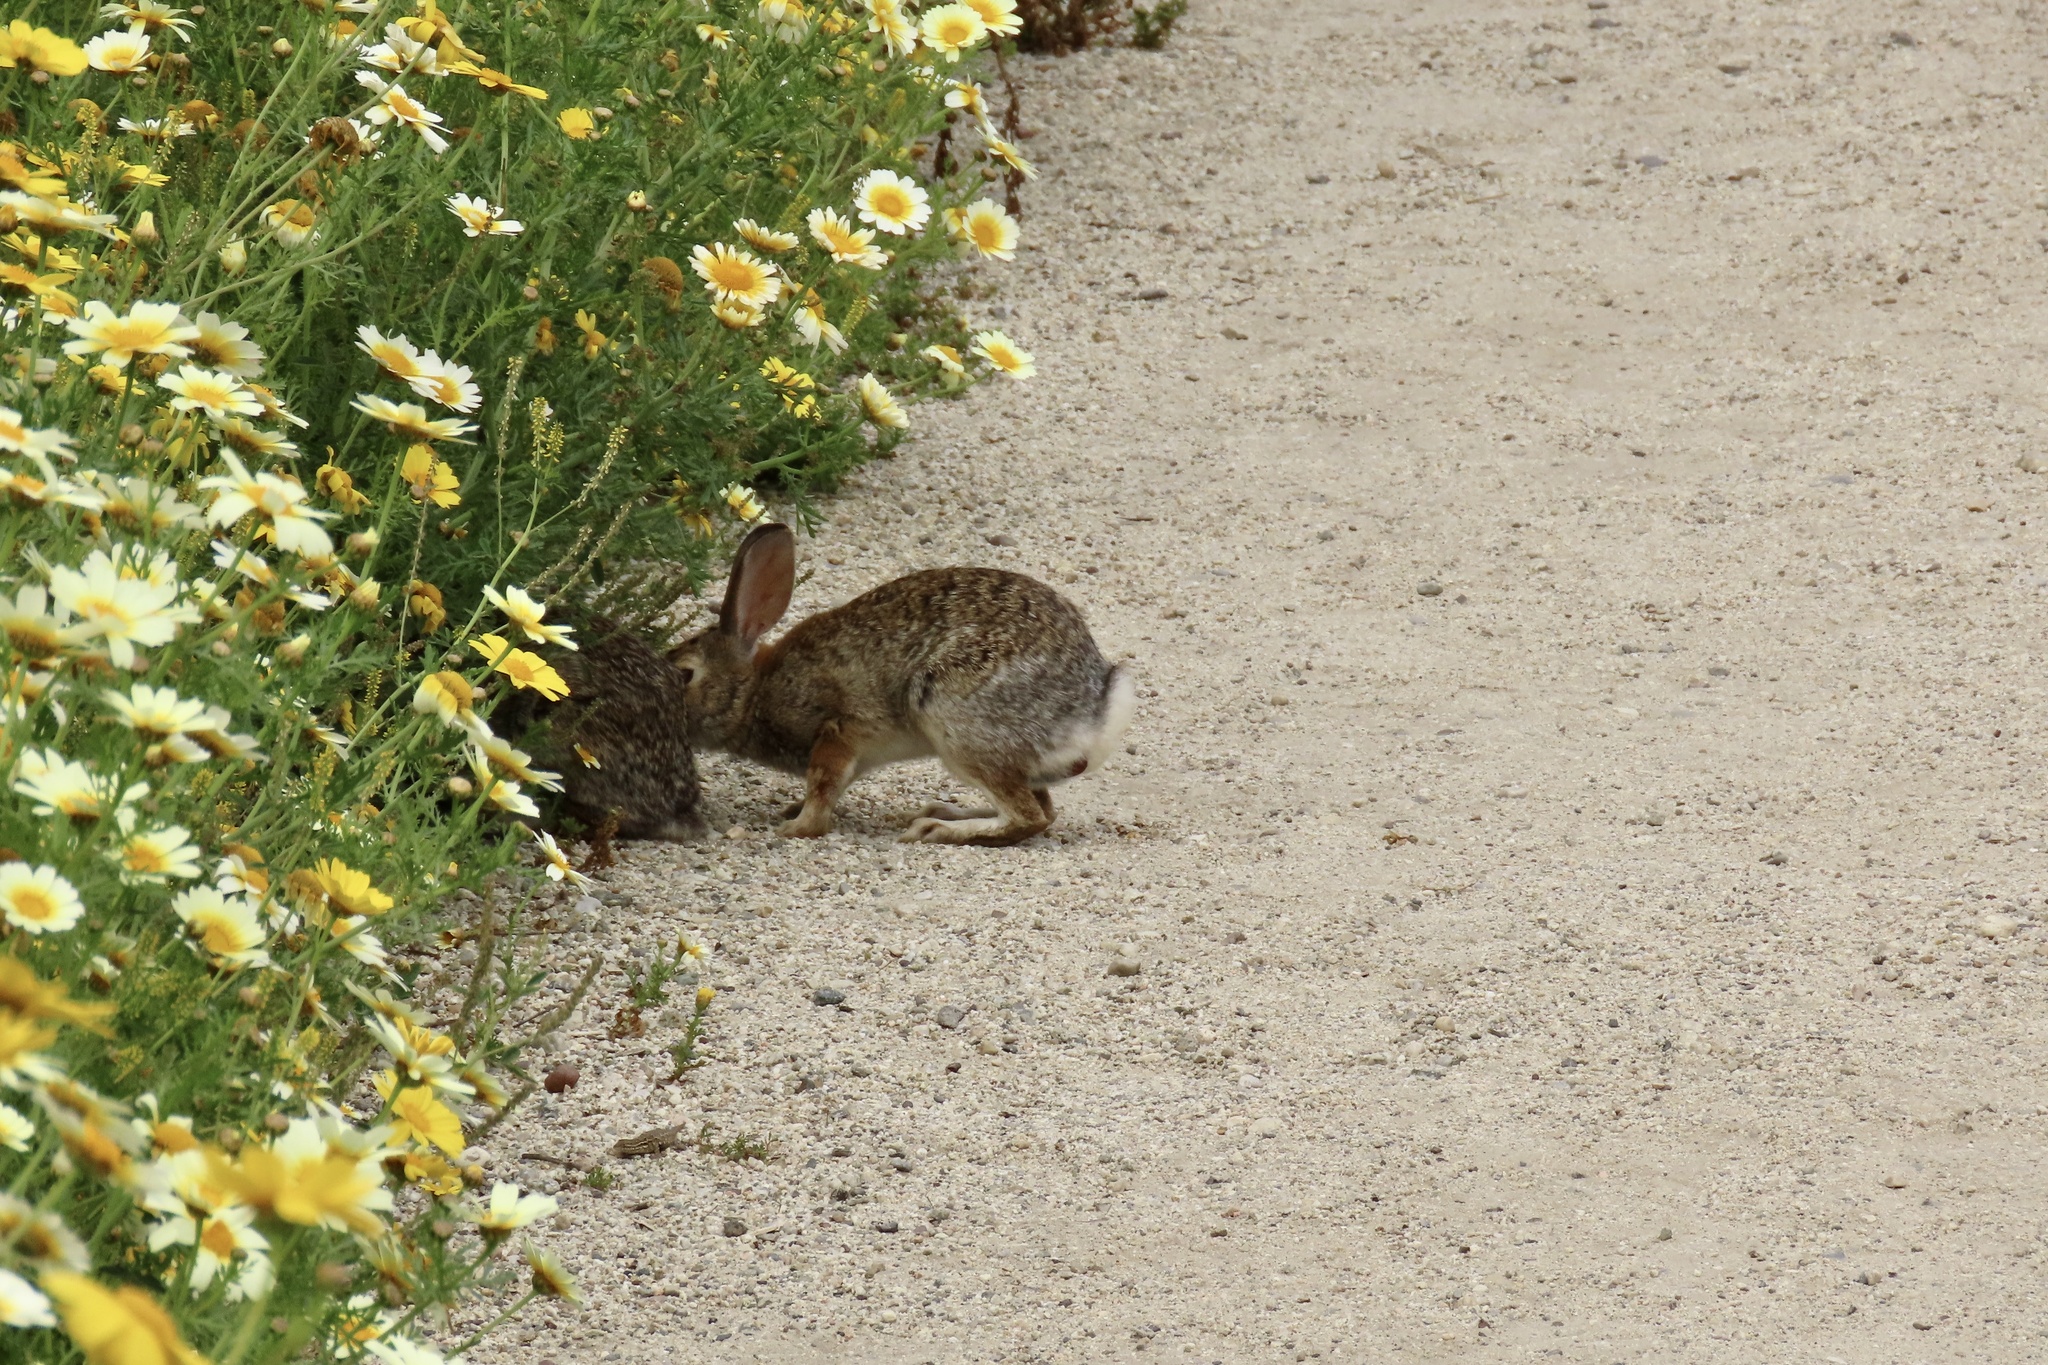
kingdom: Animalia
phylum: Chordata
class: Mammalia
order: Lagomorpha
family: Leporidae
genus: Sylvilagus
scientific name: Sylvilagus audubonii
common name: Desert cottontail
